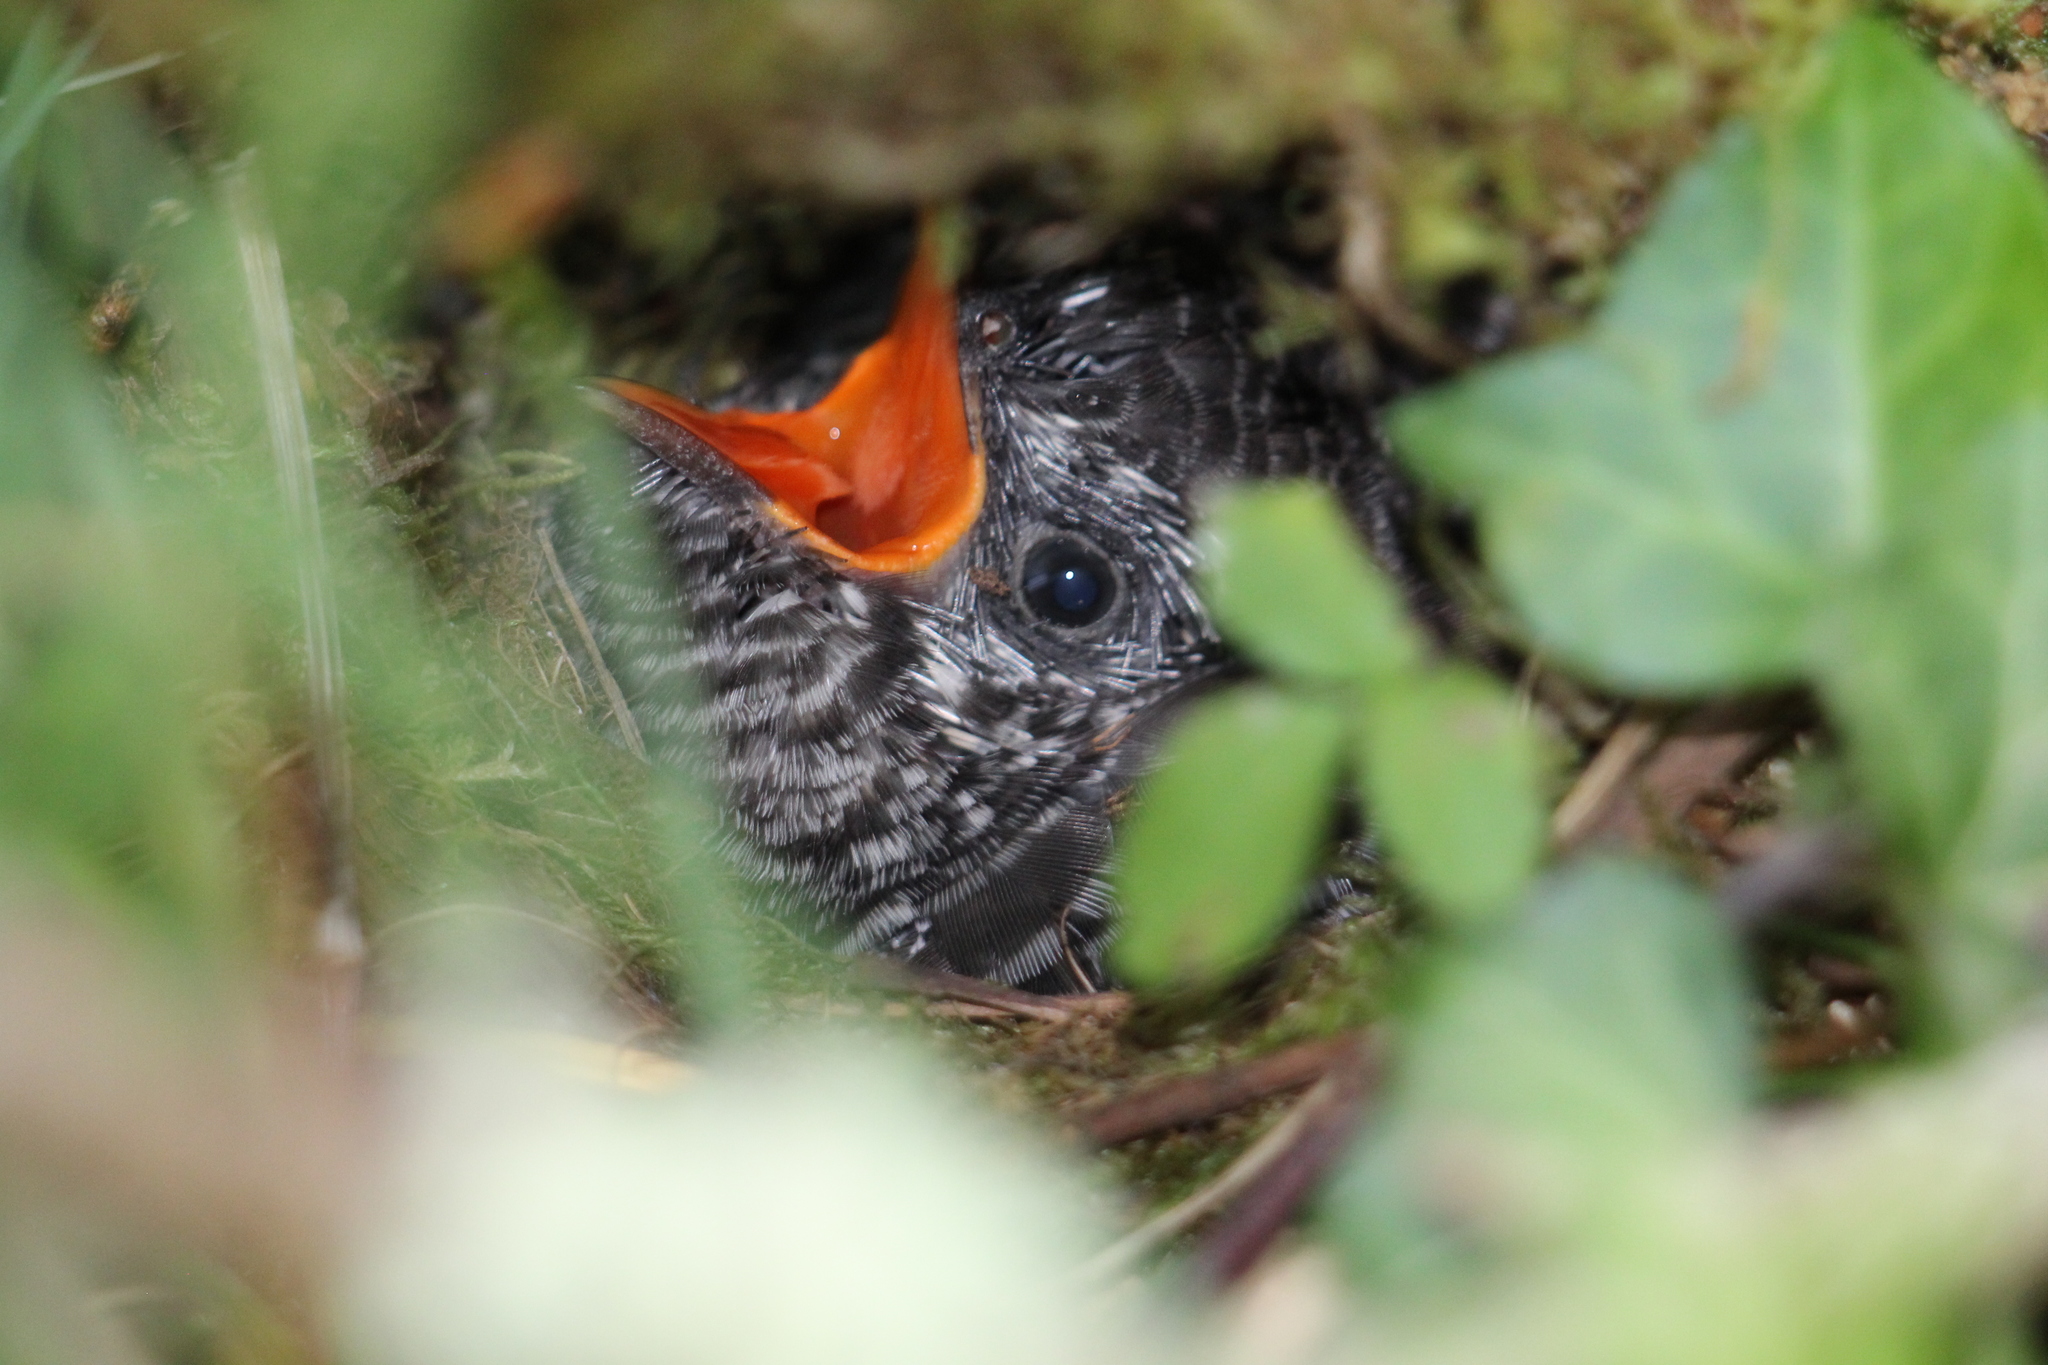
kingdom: Animalia
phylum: Chordata
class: Aves
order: Cuculiformes
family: Cuculidae
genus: Cuculus
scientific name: Cuculus canorus
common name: Common cuckoo
